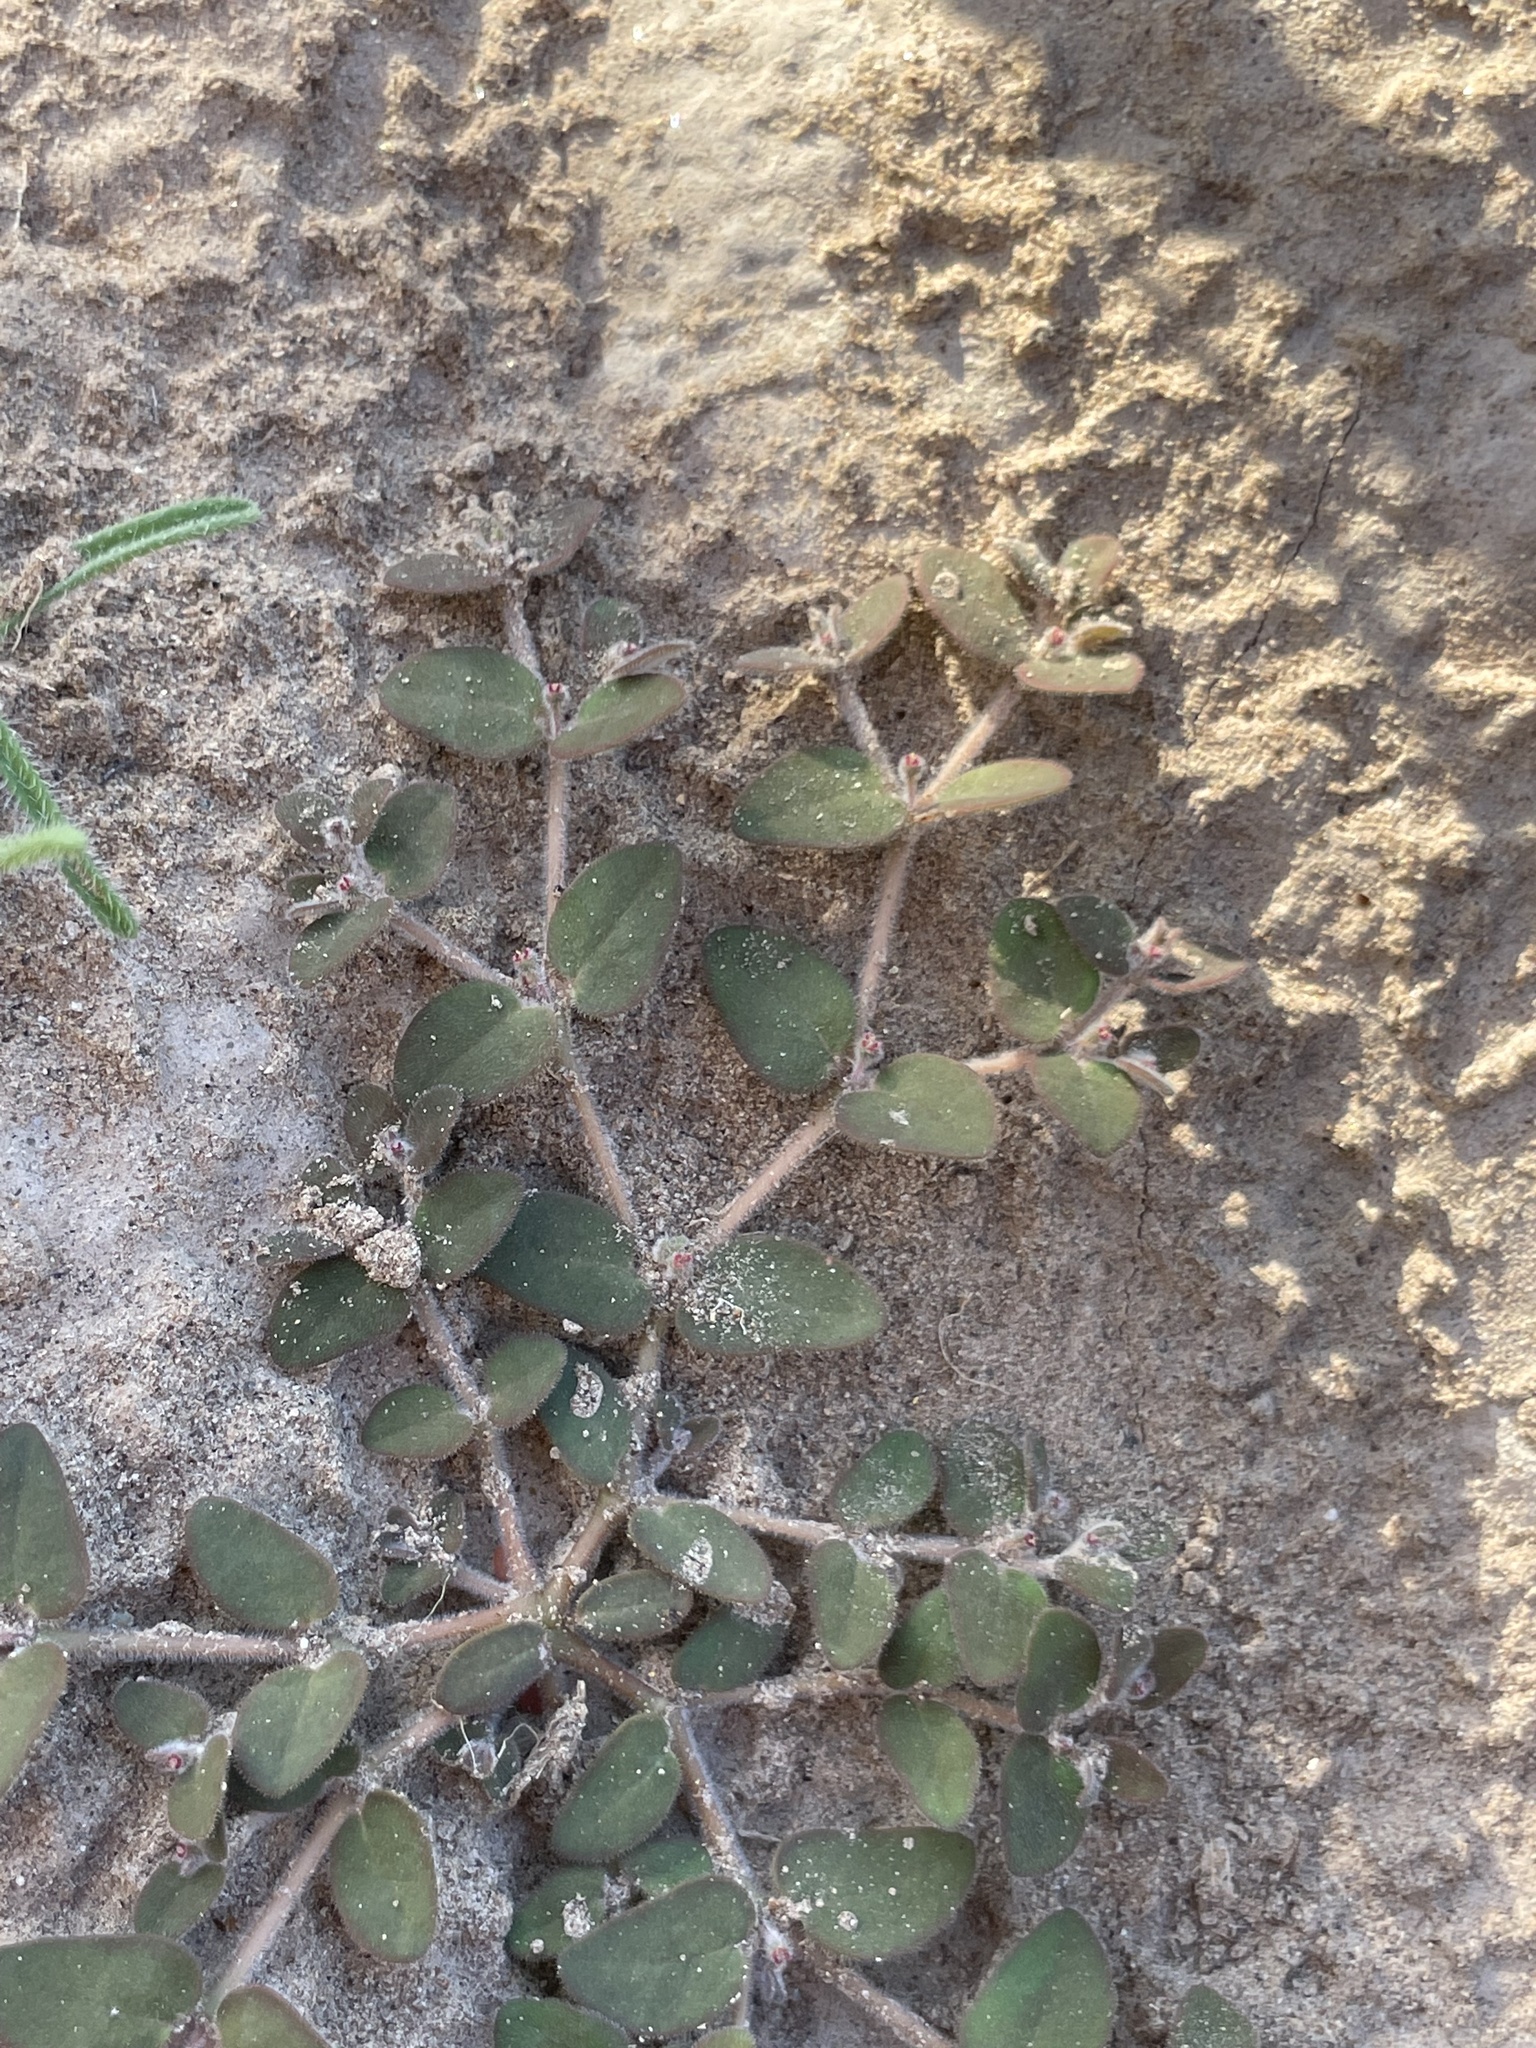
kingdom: Plantae
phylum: Tracheophyta
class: Magnoliopsida
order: Malpighiales
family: Euphorbiaceae
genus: Euphorbia
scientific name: Euphorbia petrina
